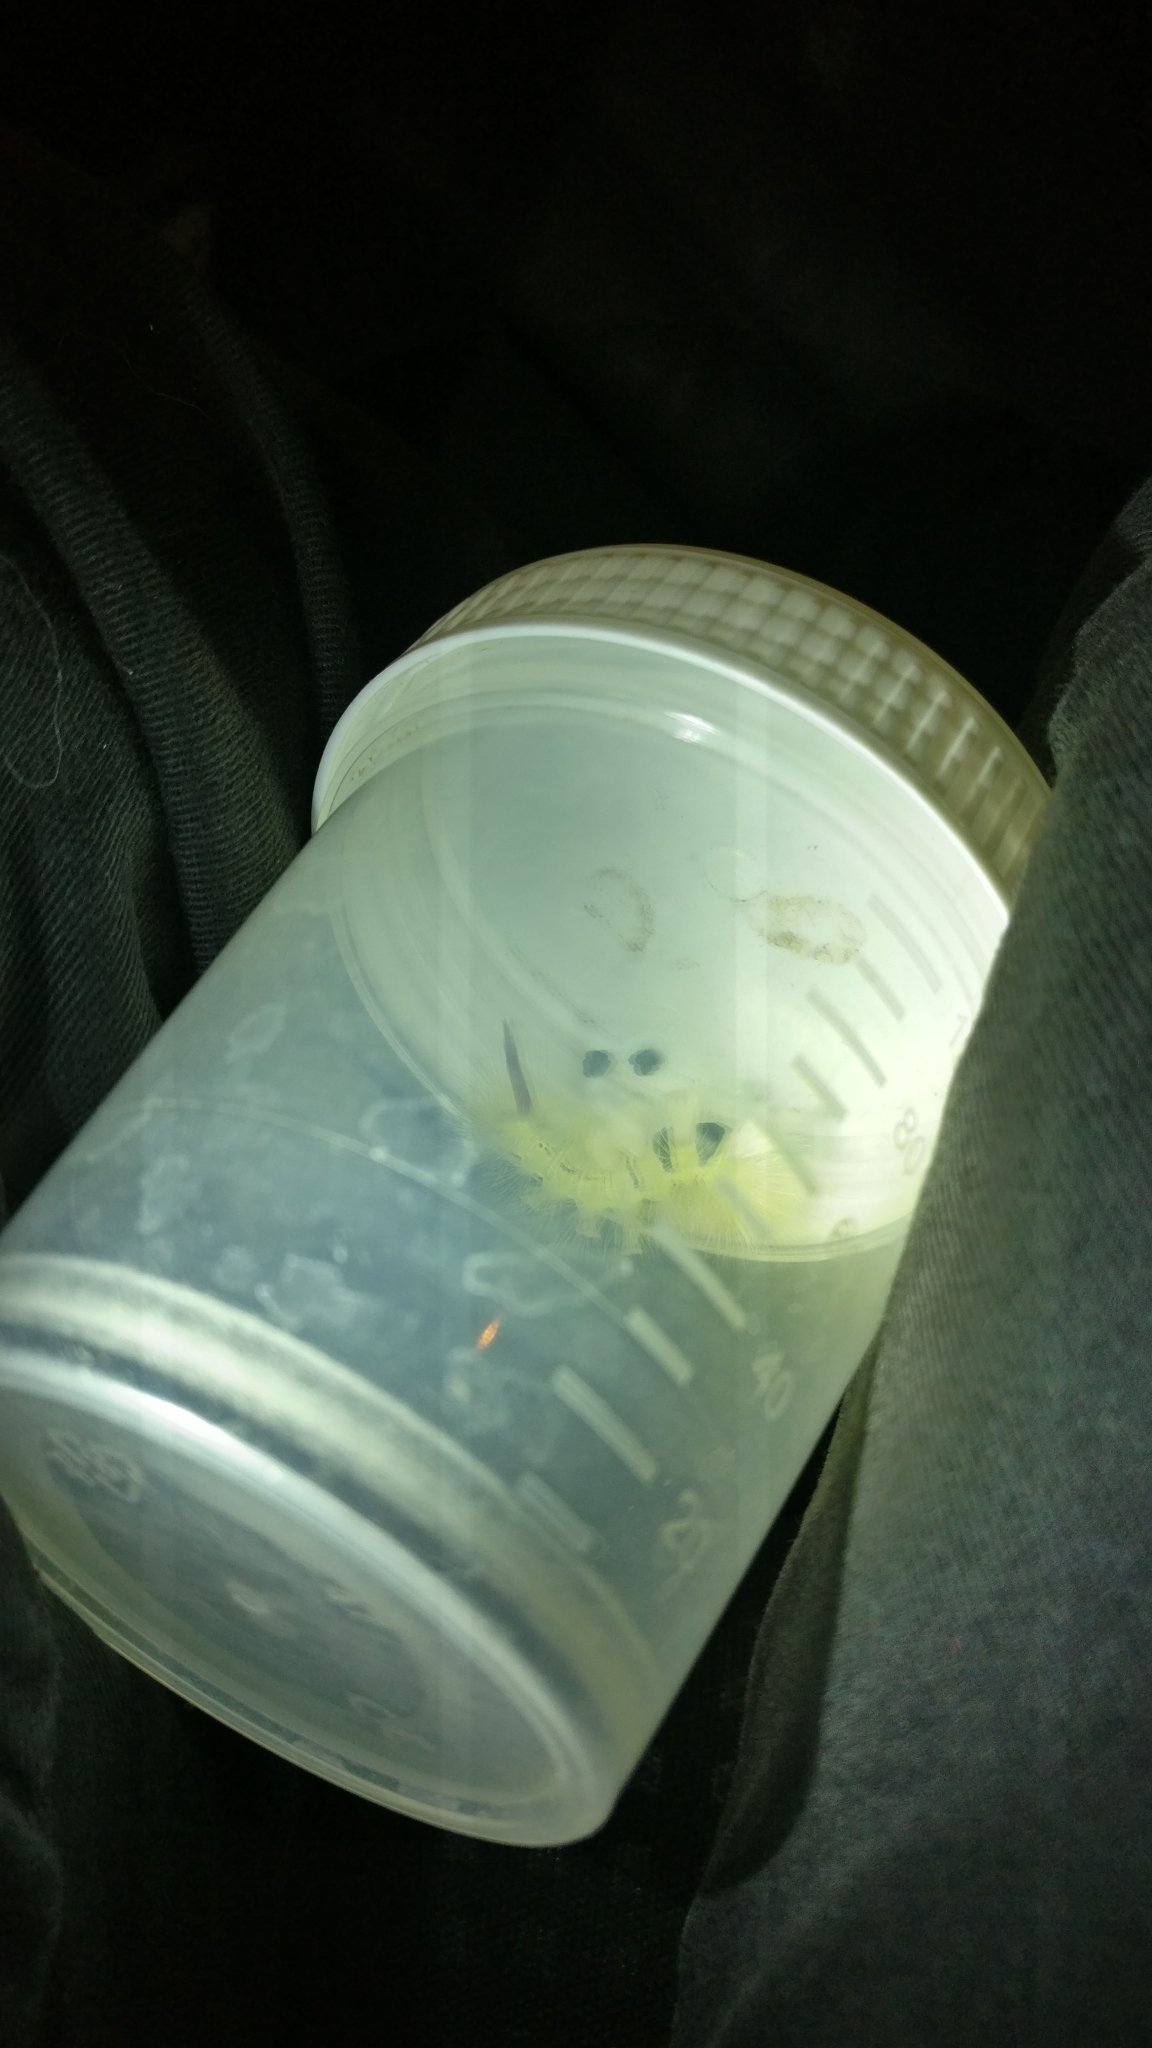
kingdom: Animalia
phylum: Arthropoda
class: Insecta
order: Lepidoptera
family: Erebidae
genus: Calliteara
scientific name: Calliteara pudibunda
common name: Pale tussock
